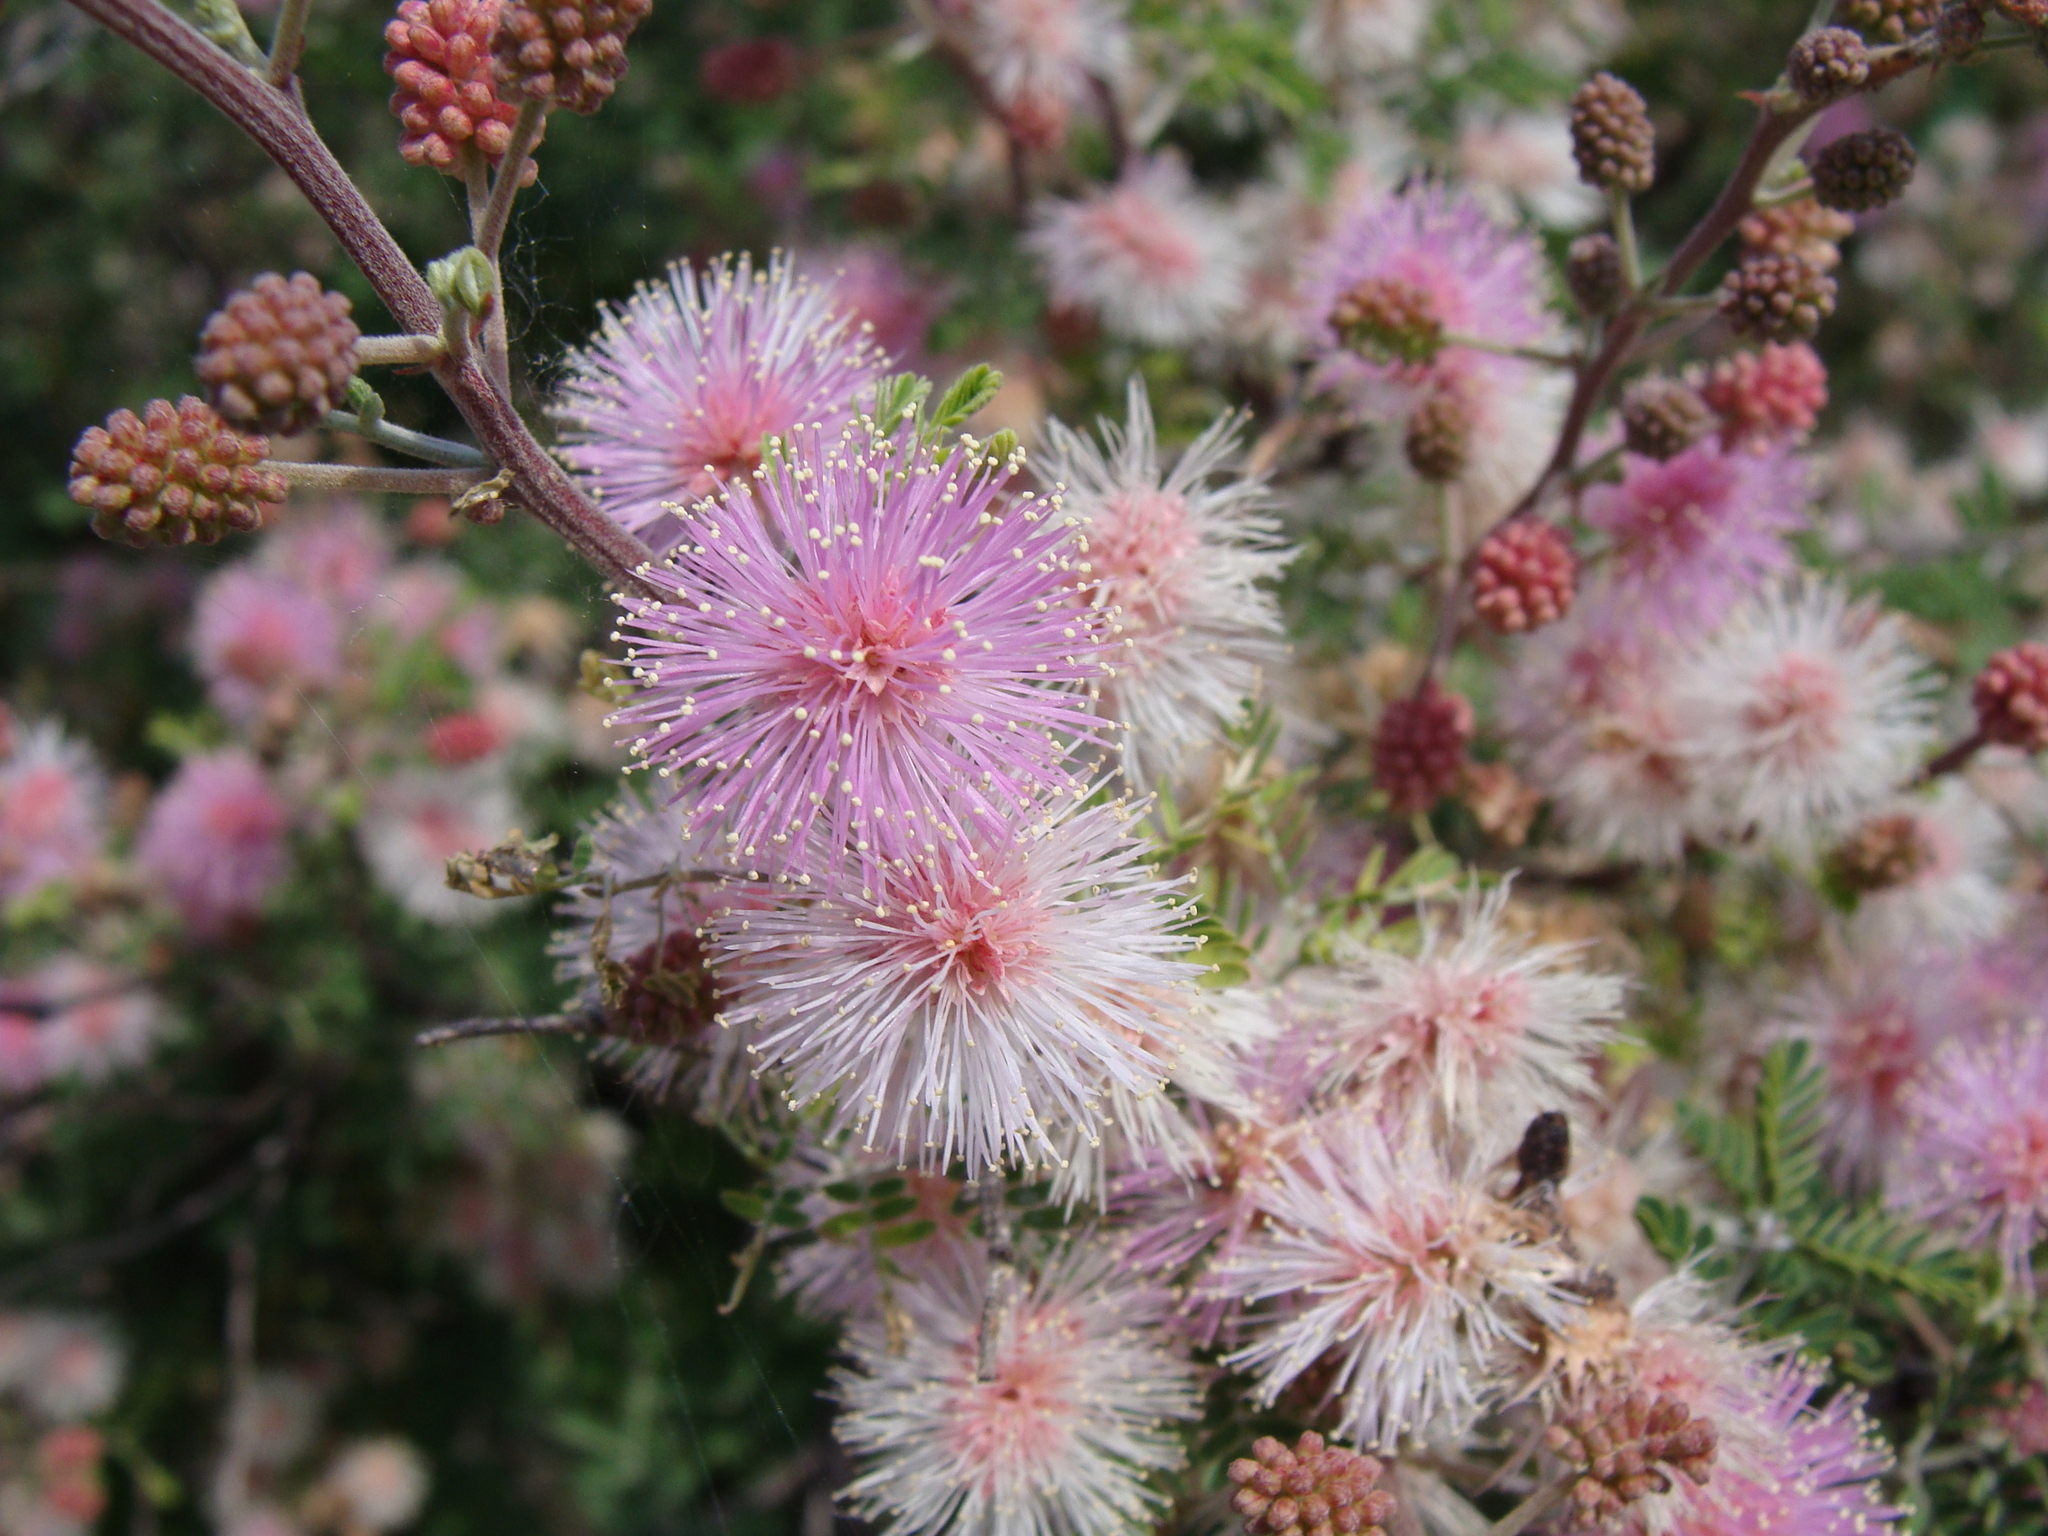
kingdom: Plantae
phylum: Tracheophyta
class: Magnoliopsida
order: Fabales
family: Fabaceae
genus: Mimosa
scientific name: Mimosa monancistra
